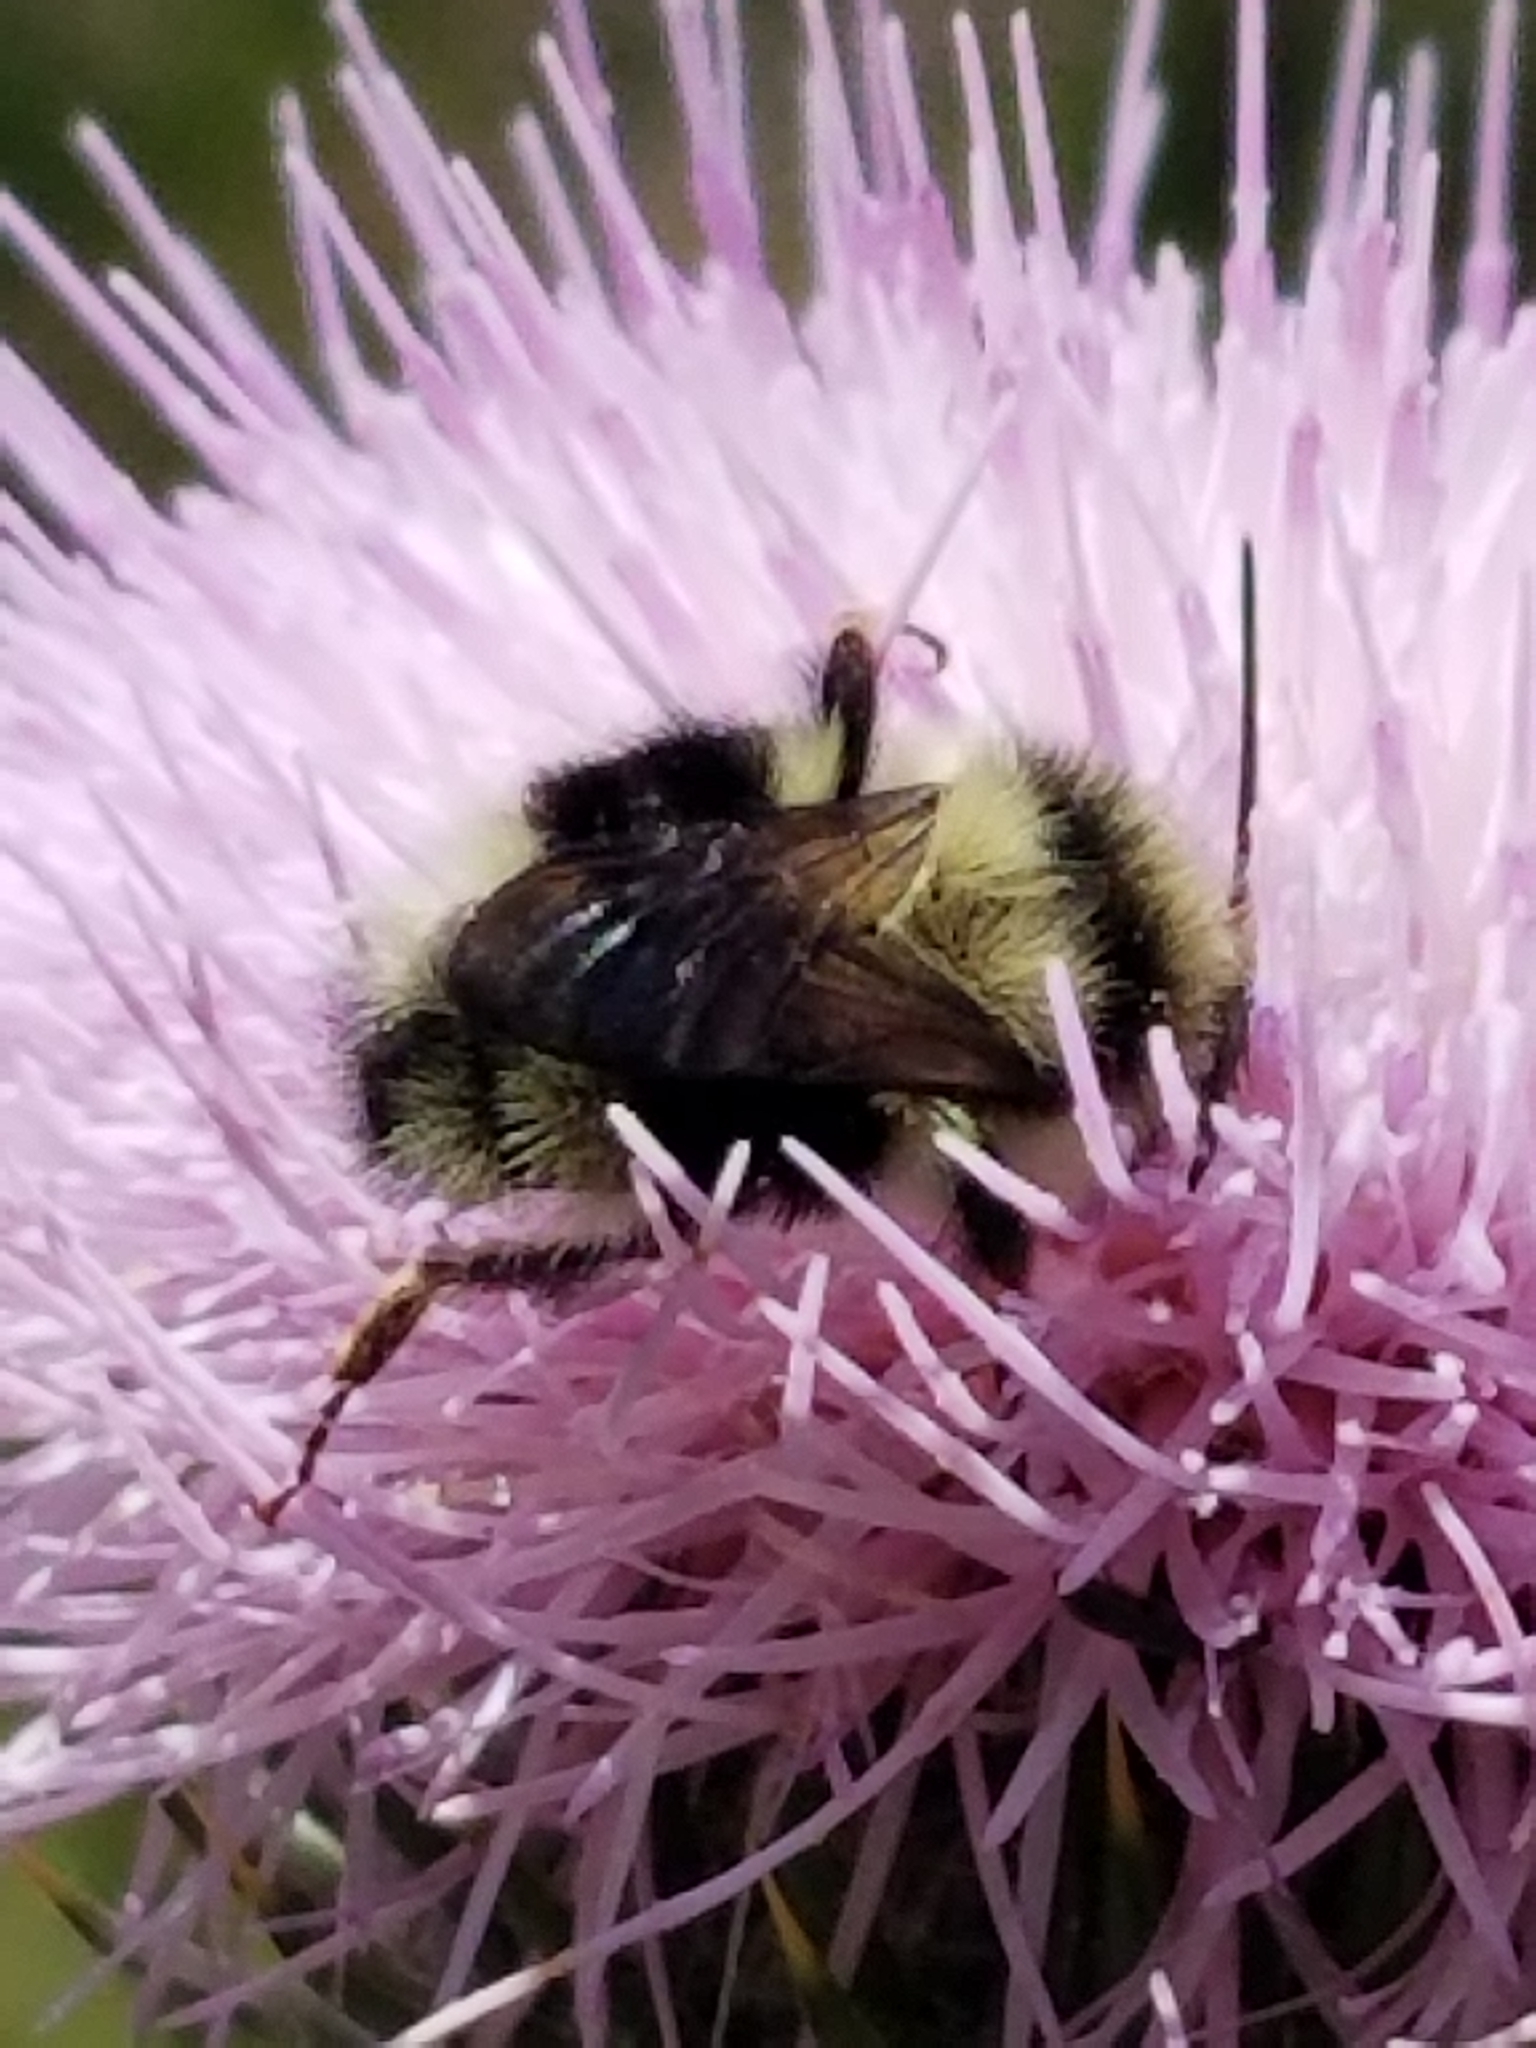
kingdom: Animalia
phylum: Arthropoda
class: Insecta
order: Hymenoptera
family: Apidae
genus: Bombus
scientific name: Bombus melanopygus
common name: Black tail bumble bee
